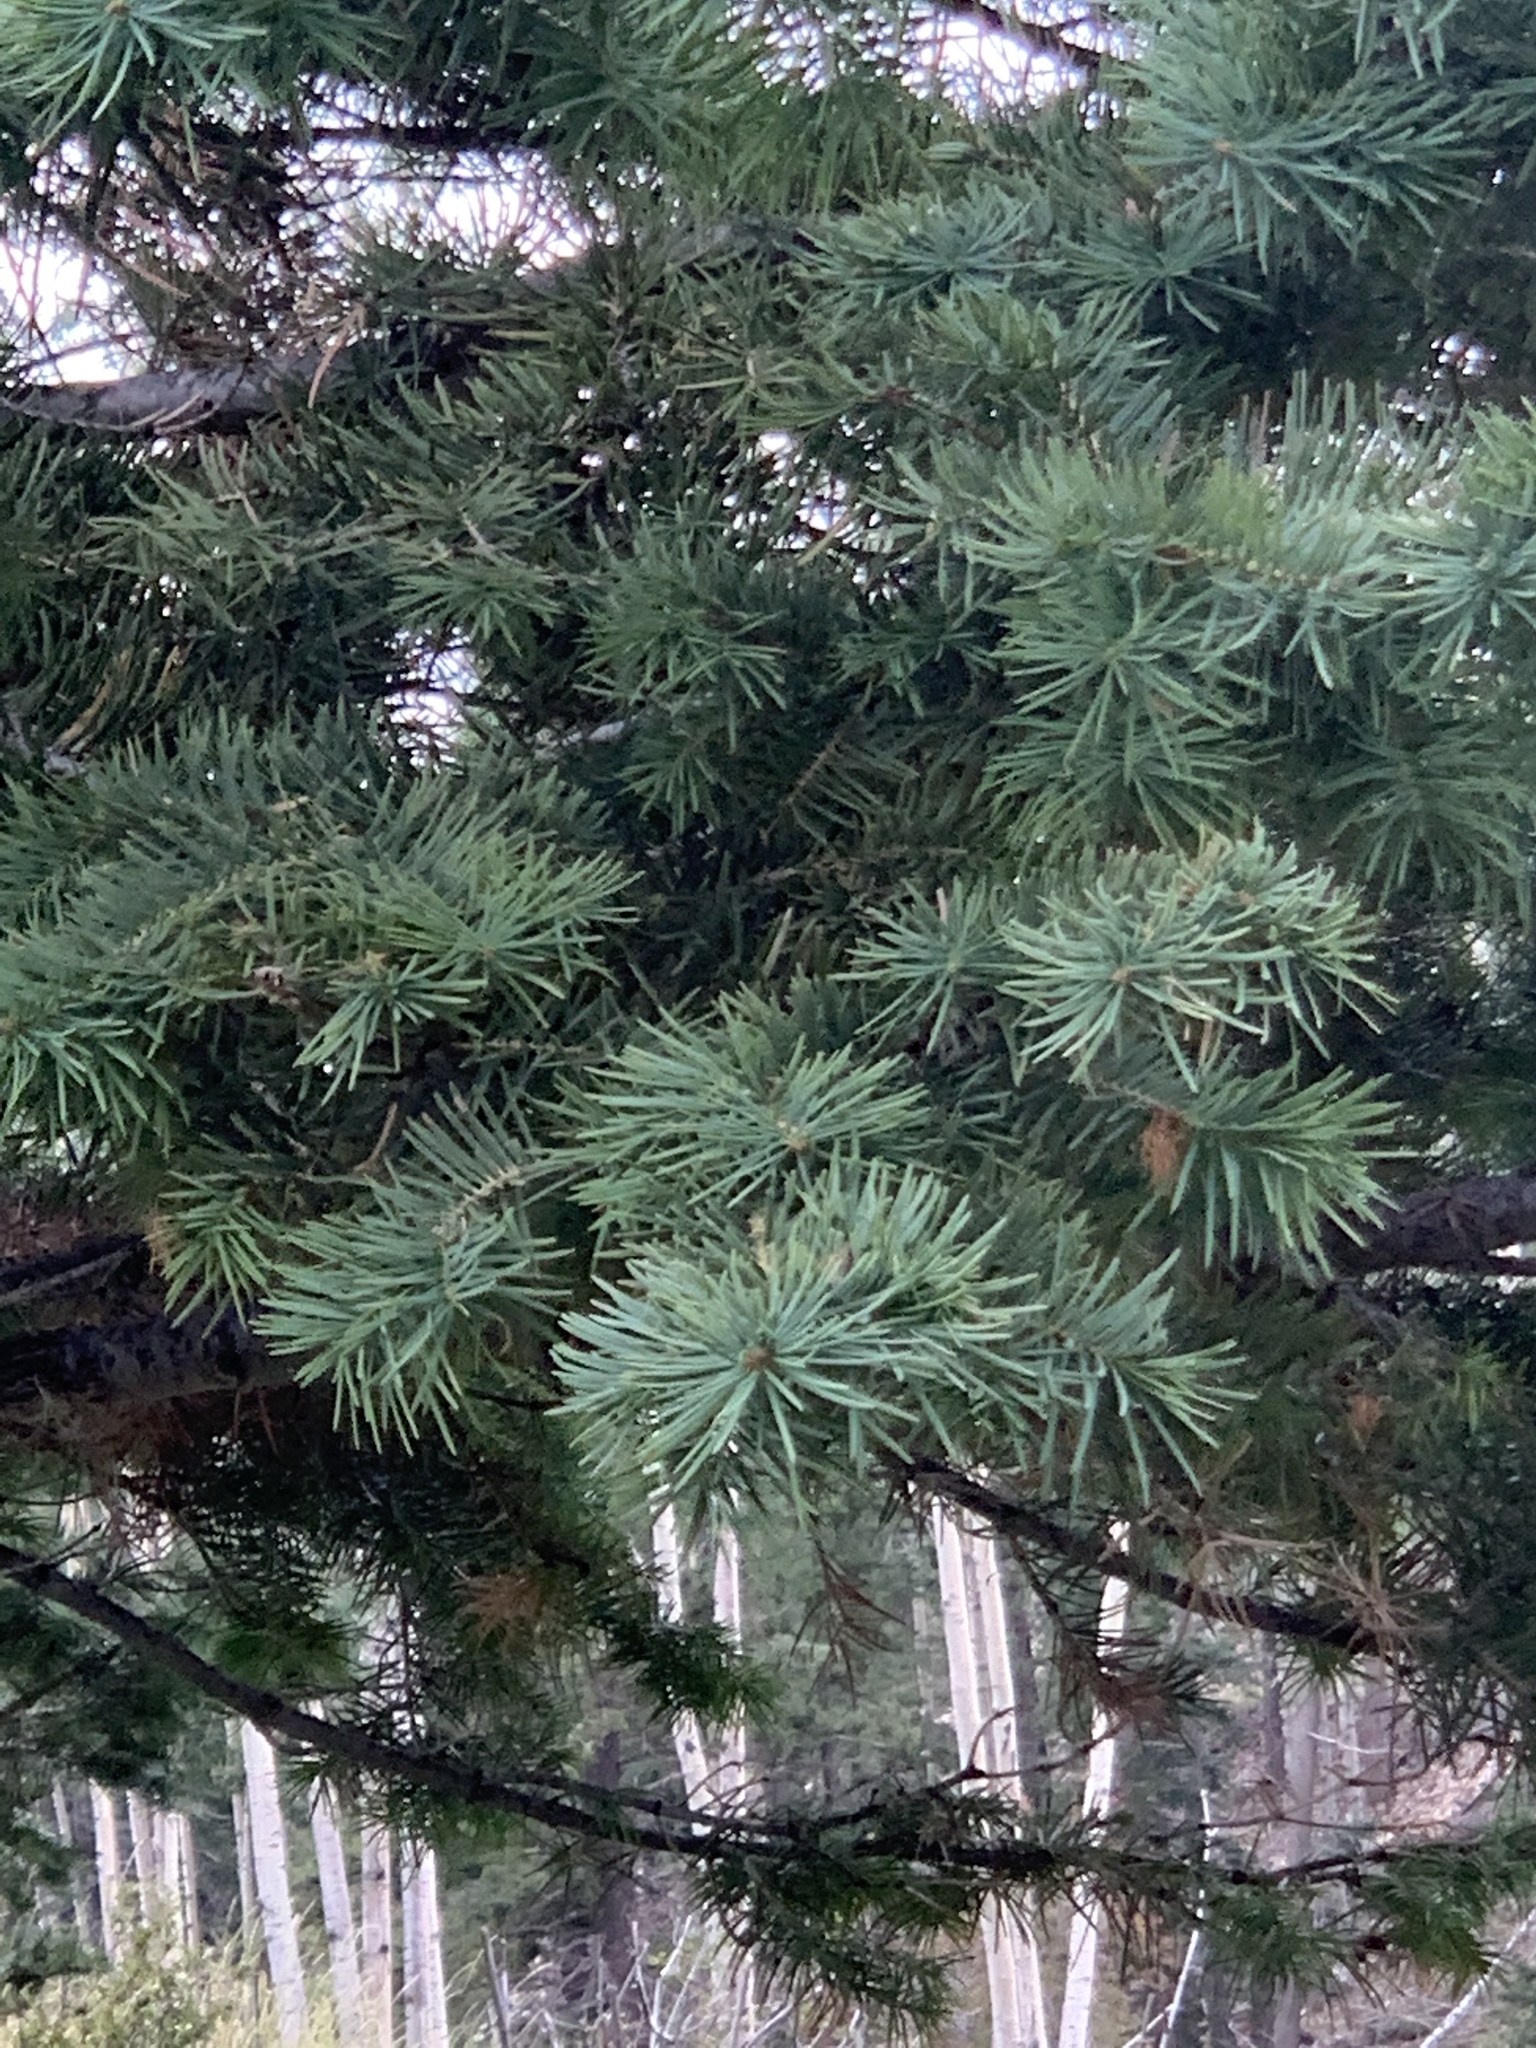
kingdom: Plantae
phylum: Tracheophyta
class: Pinopsida
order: Pinales
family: Pinaceae
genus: Abies
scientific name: Abies concolor
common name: Colorado fir
